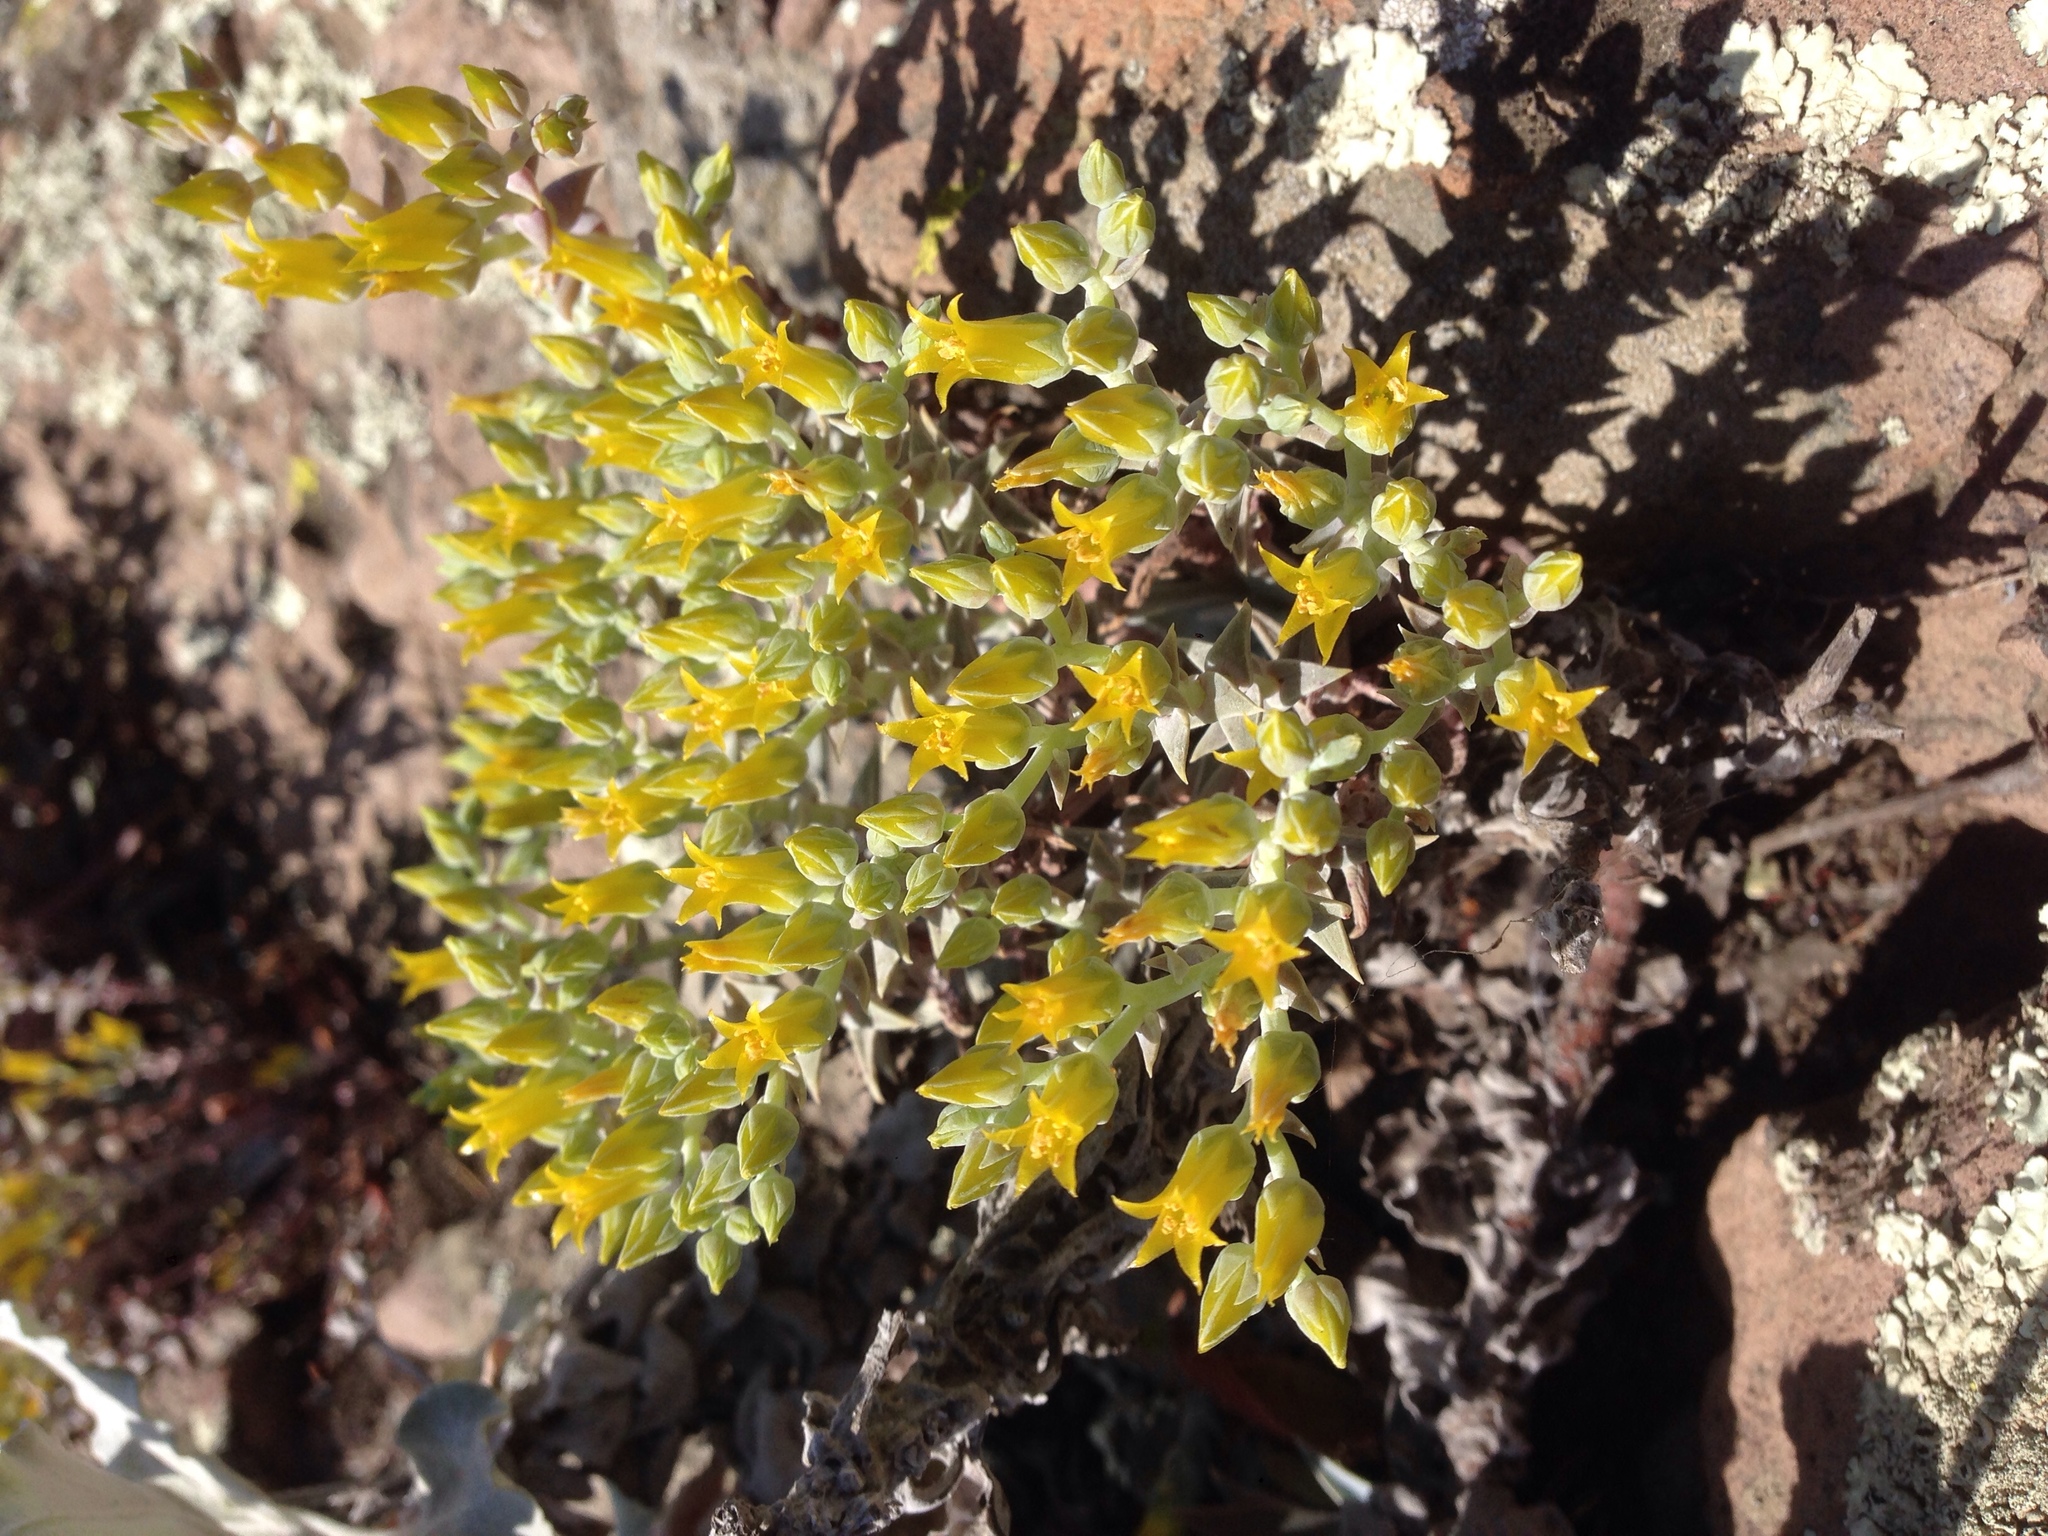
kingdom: Plantae
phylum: Tracheophyta
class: Magnoliopsida
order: Saxifragales
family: Crassulaceae
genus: Dudleya
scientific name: Dudleya verityi
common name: Verity dudleya
